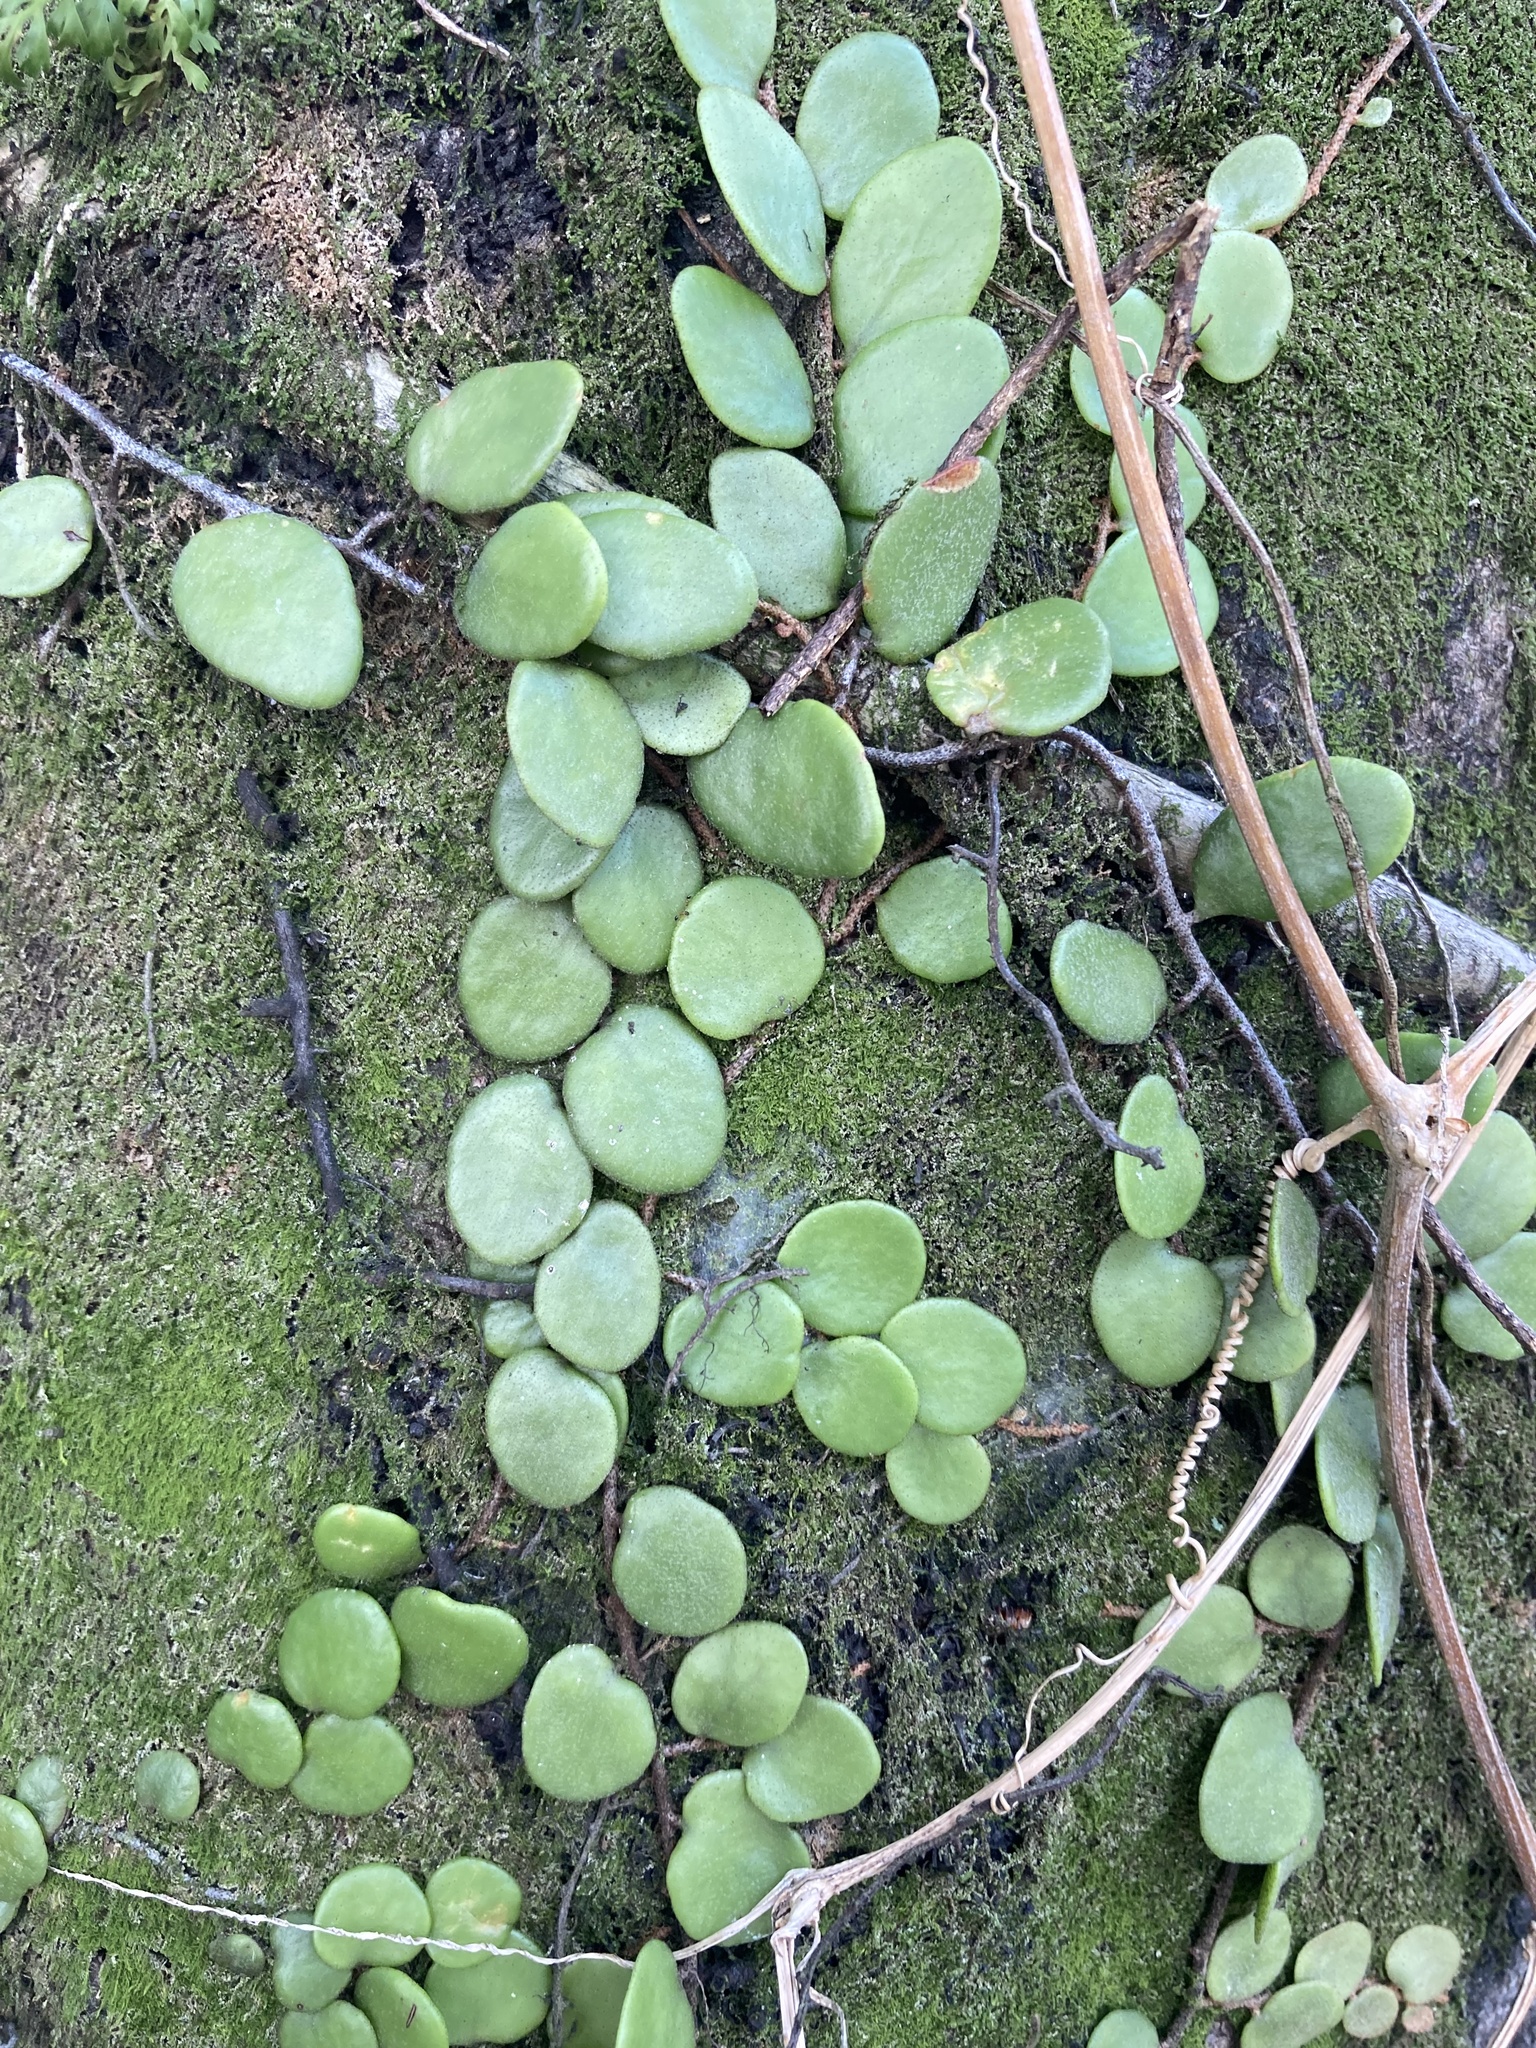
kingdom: Plantae
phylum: Tracheophyta
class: Polypodiopsida
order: Polypodiales
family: Polypodiaceae
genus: Pyrrosia
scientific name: Pyrrosia piloselloides
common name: Epiphytic creeping fern
